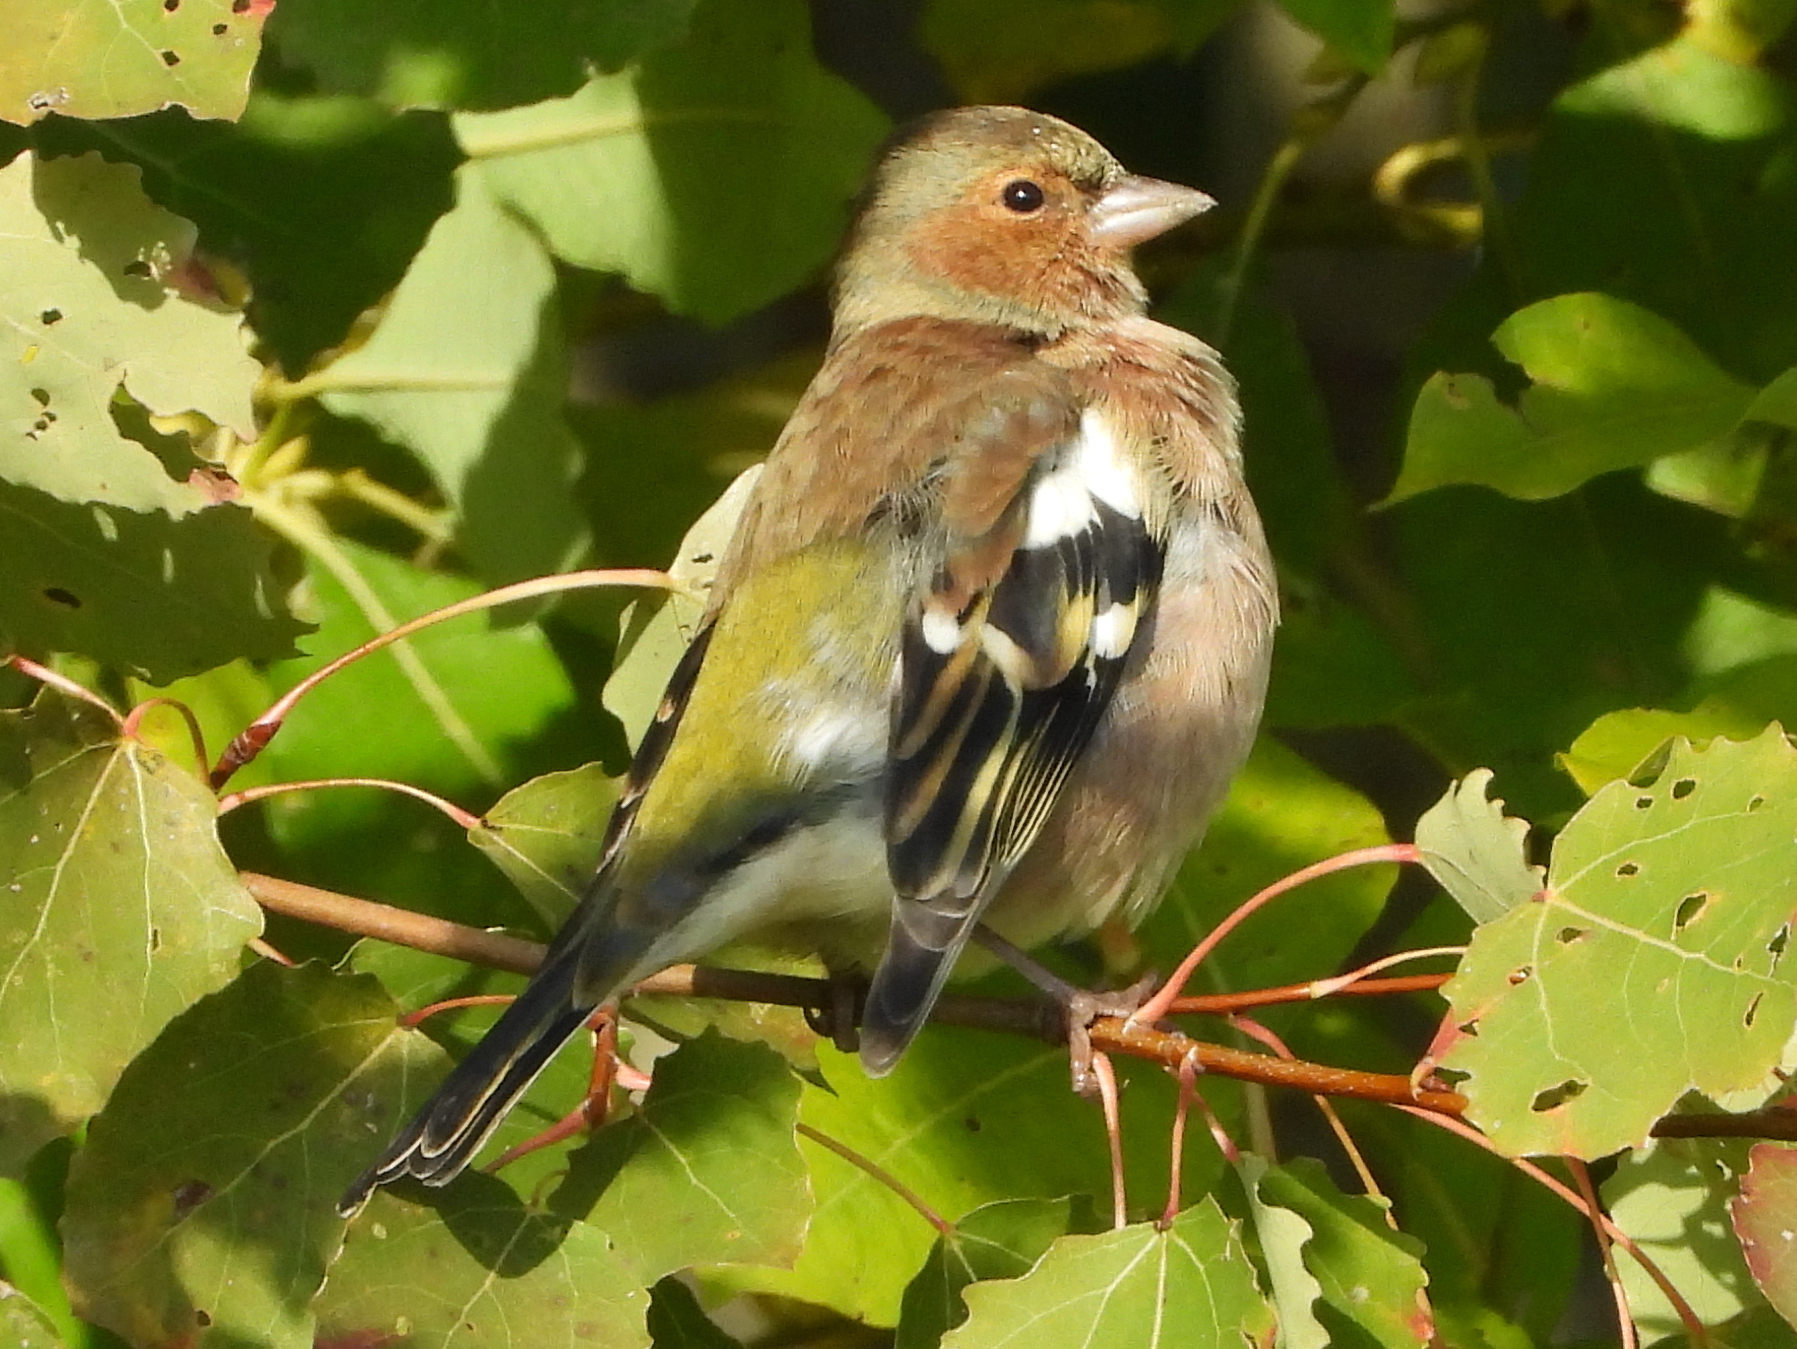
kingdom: Animalia
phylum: Chordata
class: Aves
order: Passeriformes
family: Fringillidae
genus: Fringilla
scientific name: Fringilla coelebs
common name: Common chaffinch
